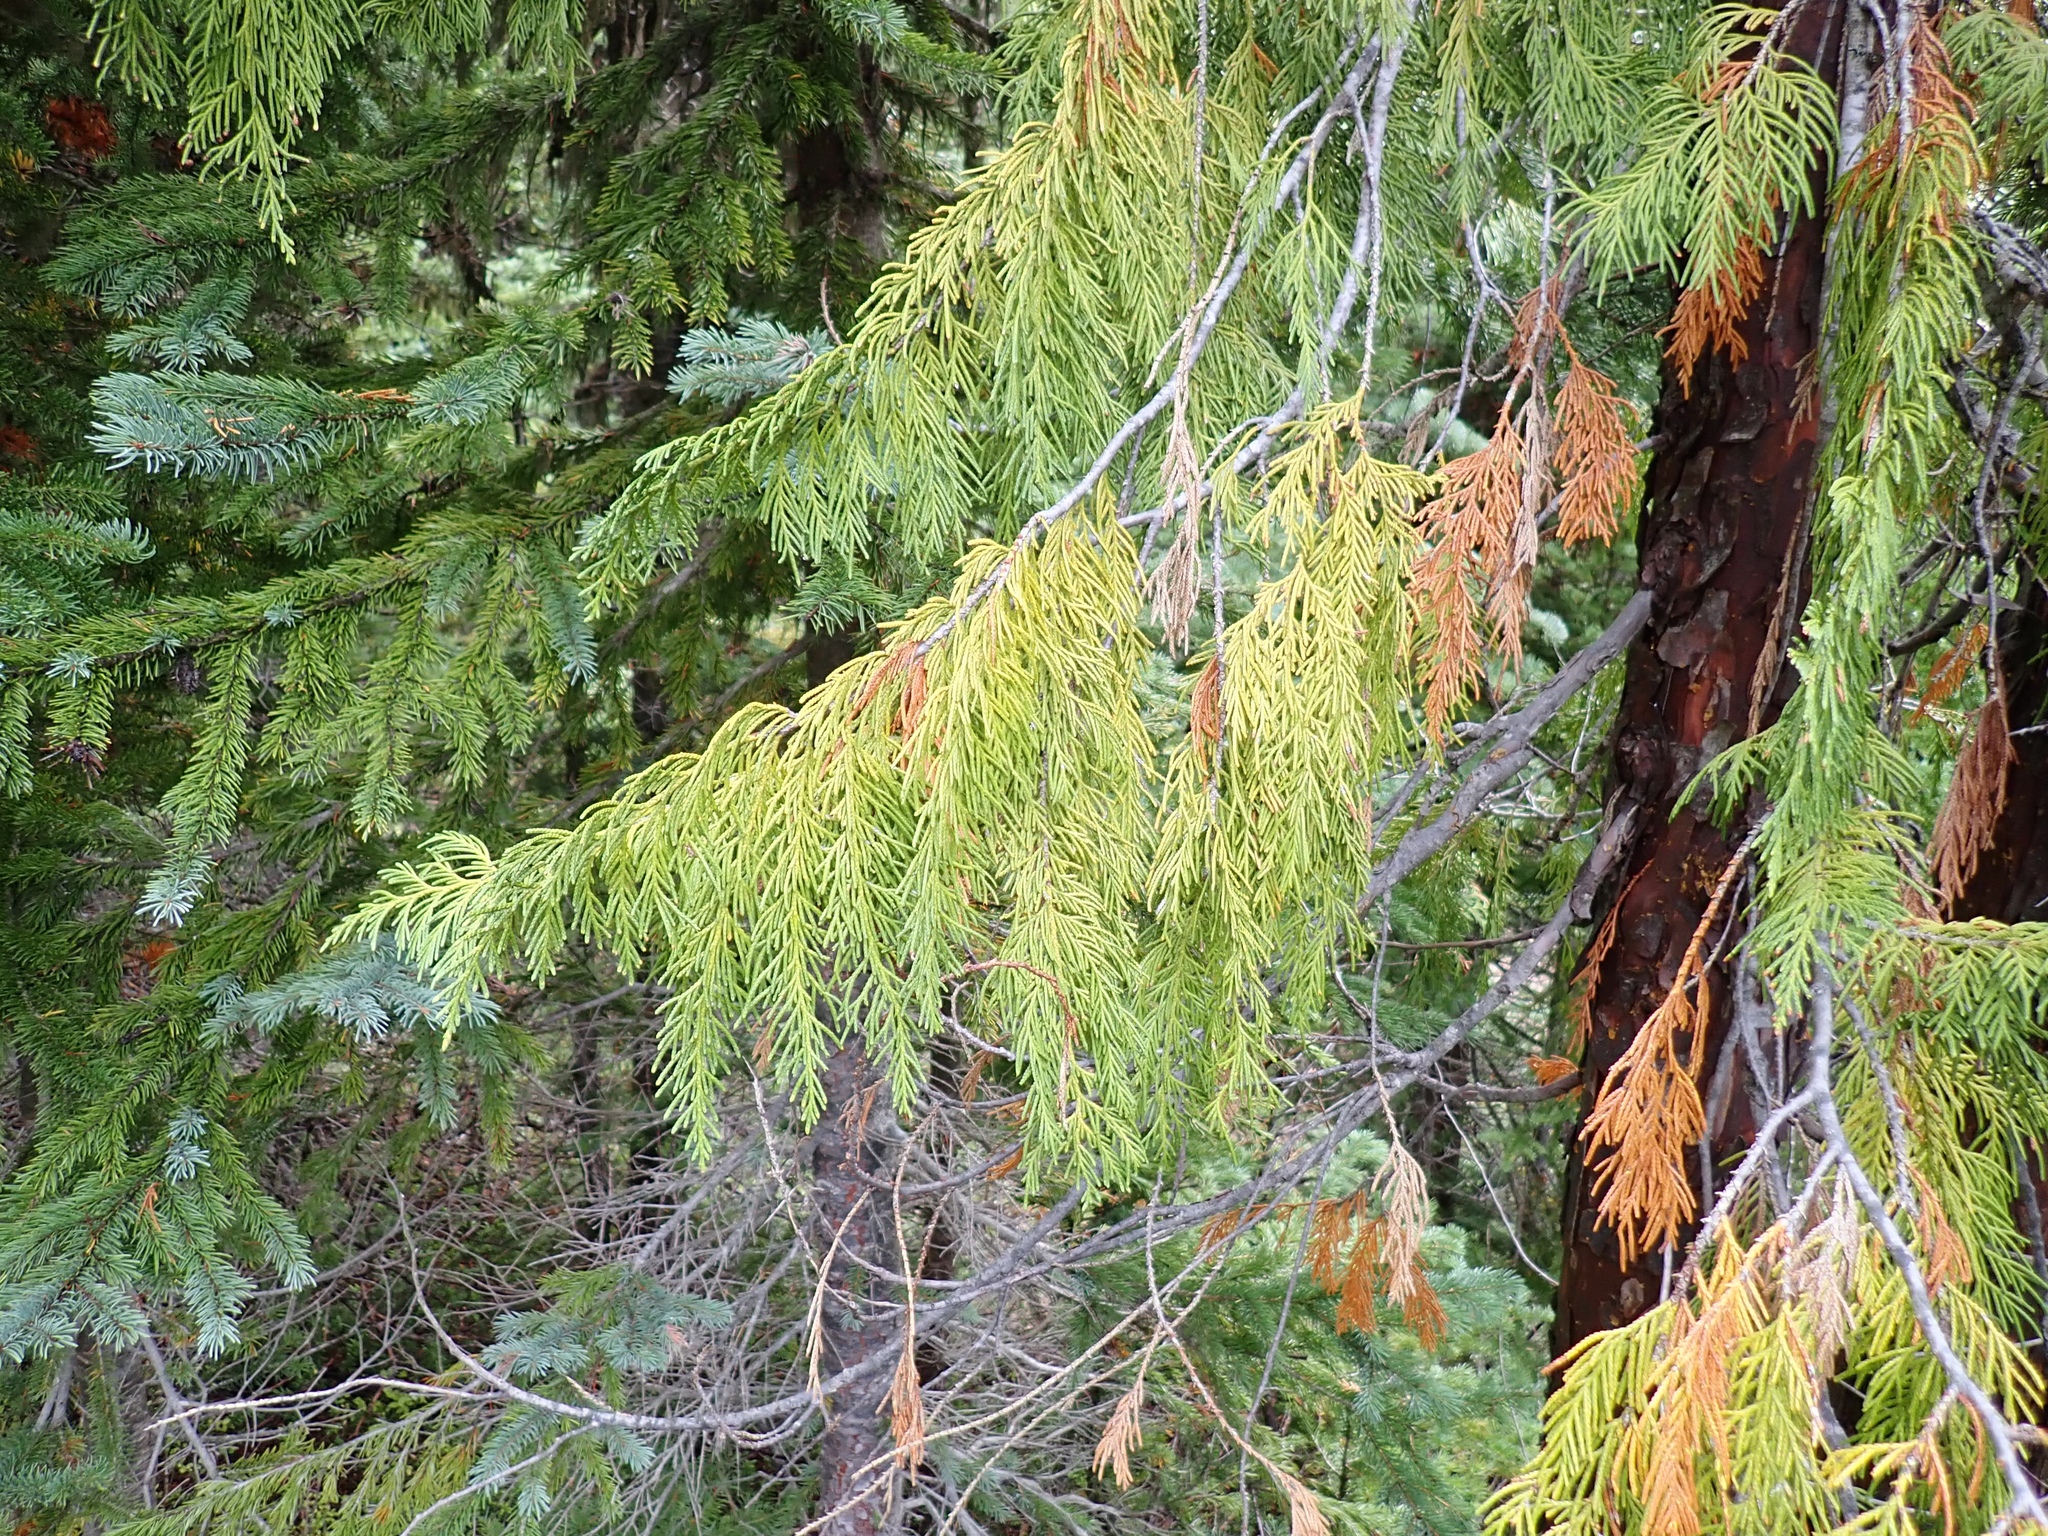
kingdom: Plantae
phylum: Tracheophyta
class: Pinopsida
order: Pinales
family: Cupressaceae
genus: Xanthocyparis
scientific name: Xanthocyparis nootkatensis
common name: Nootka cypress
